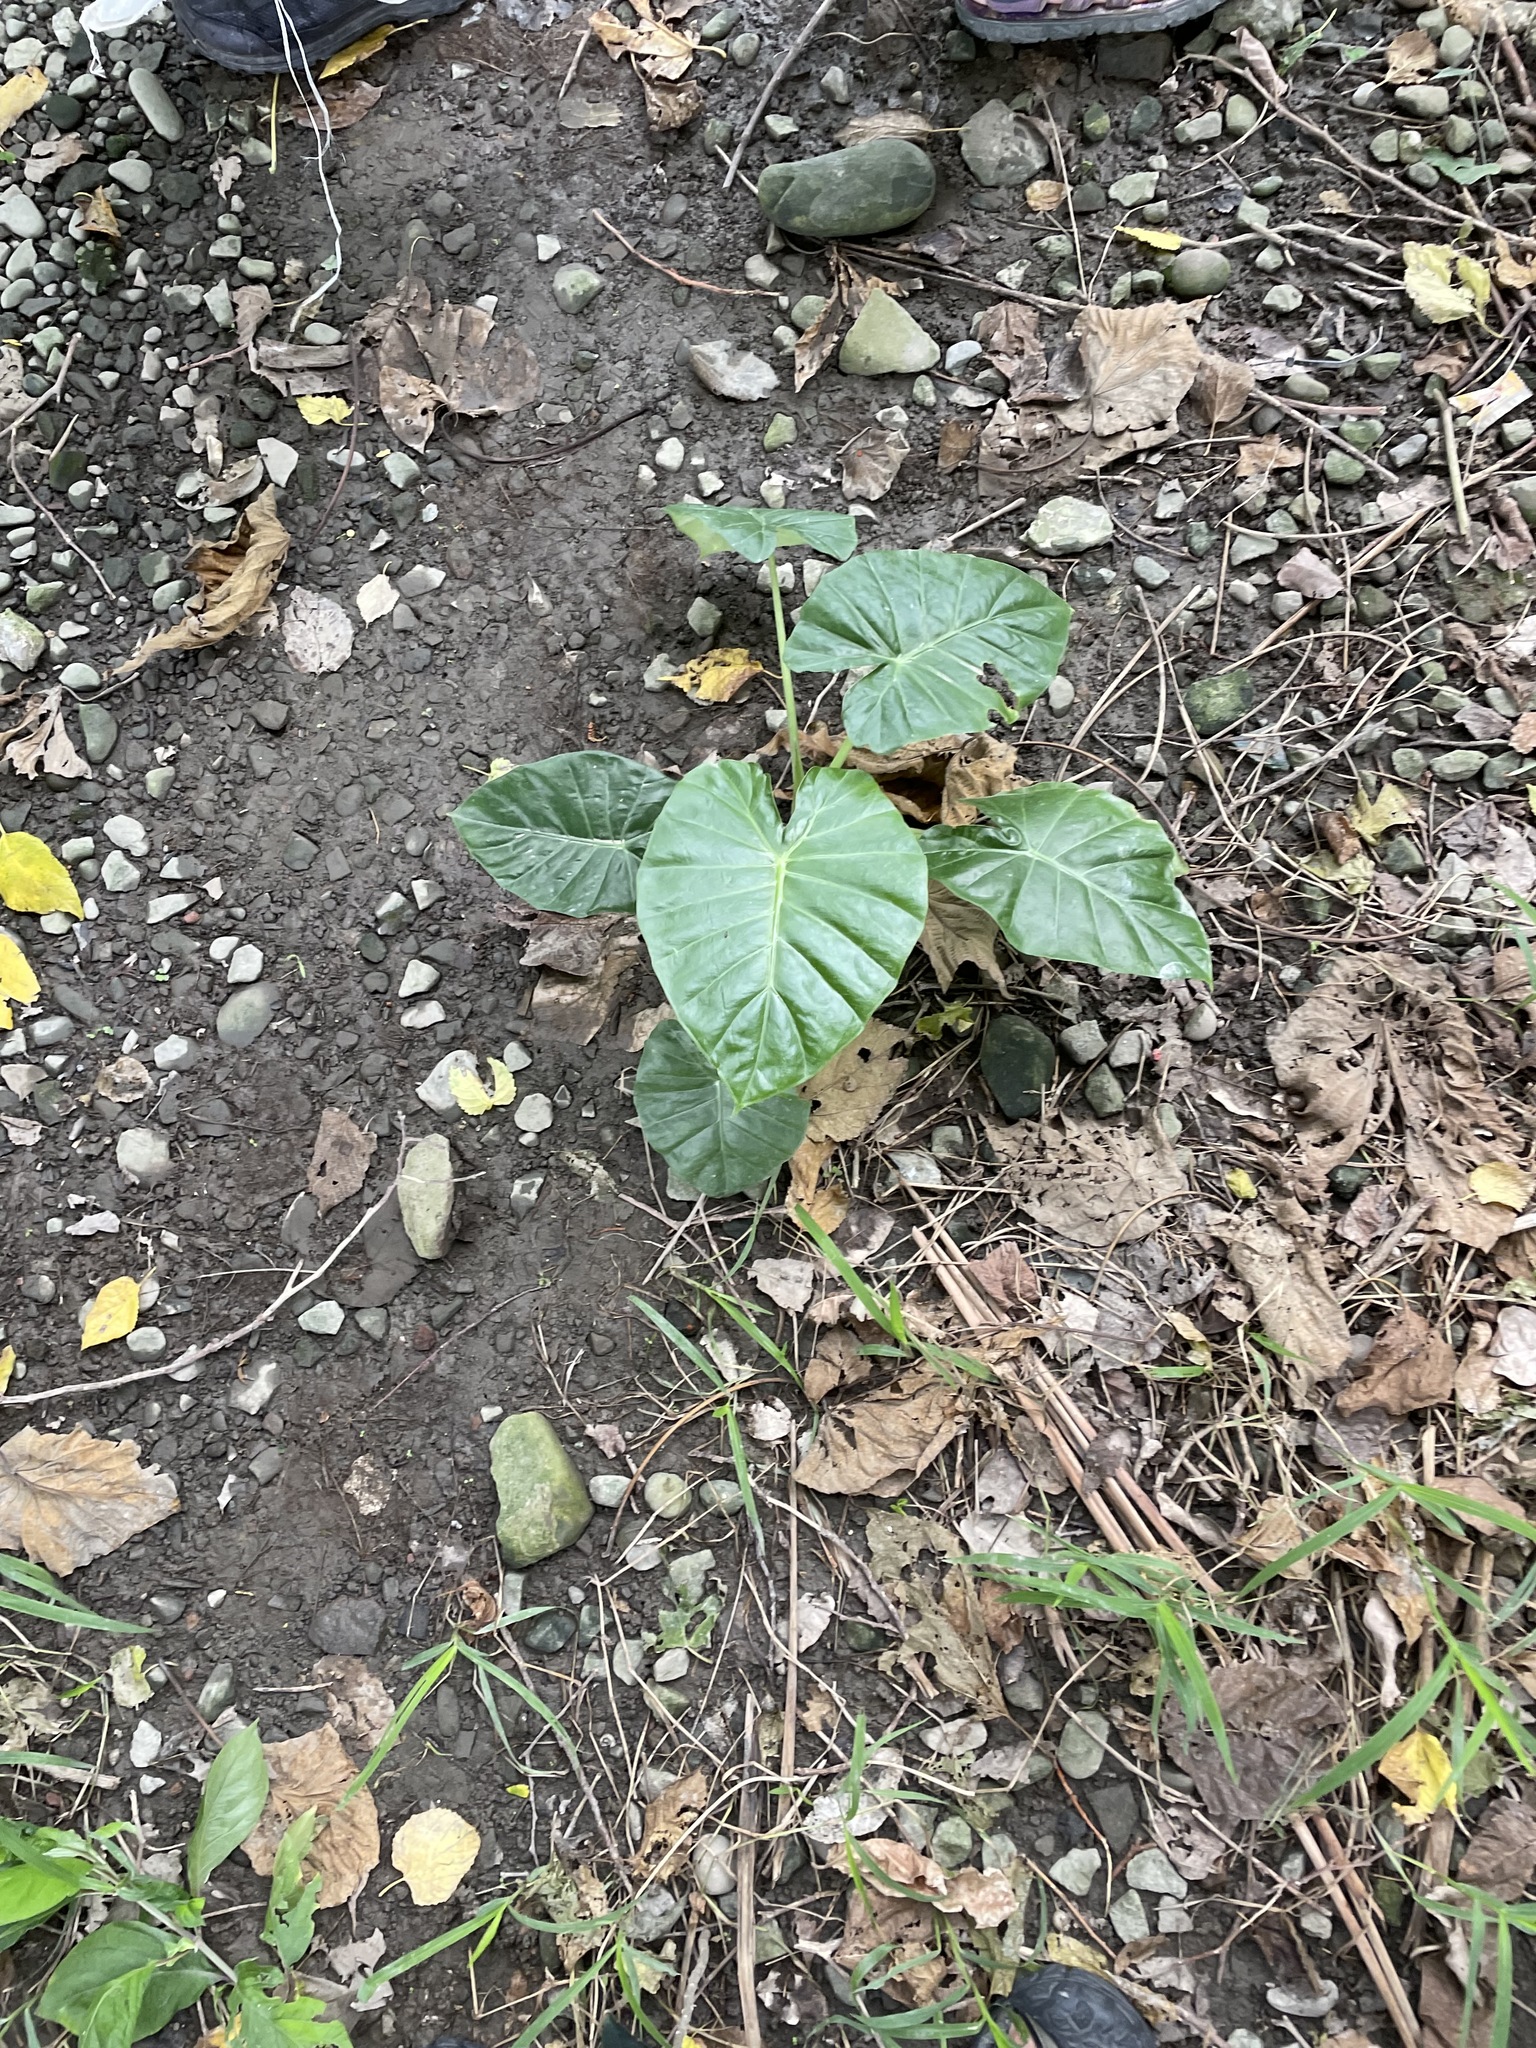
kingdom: Plantae
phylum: Tracheophyta
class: Liliopsida
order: Alismatales
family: Araceae
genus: Alocasia
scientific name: Alocasia odora
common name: Asian taro
